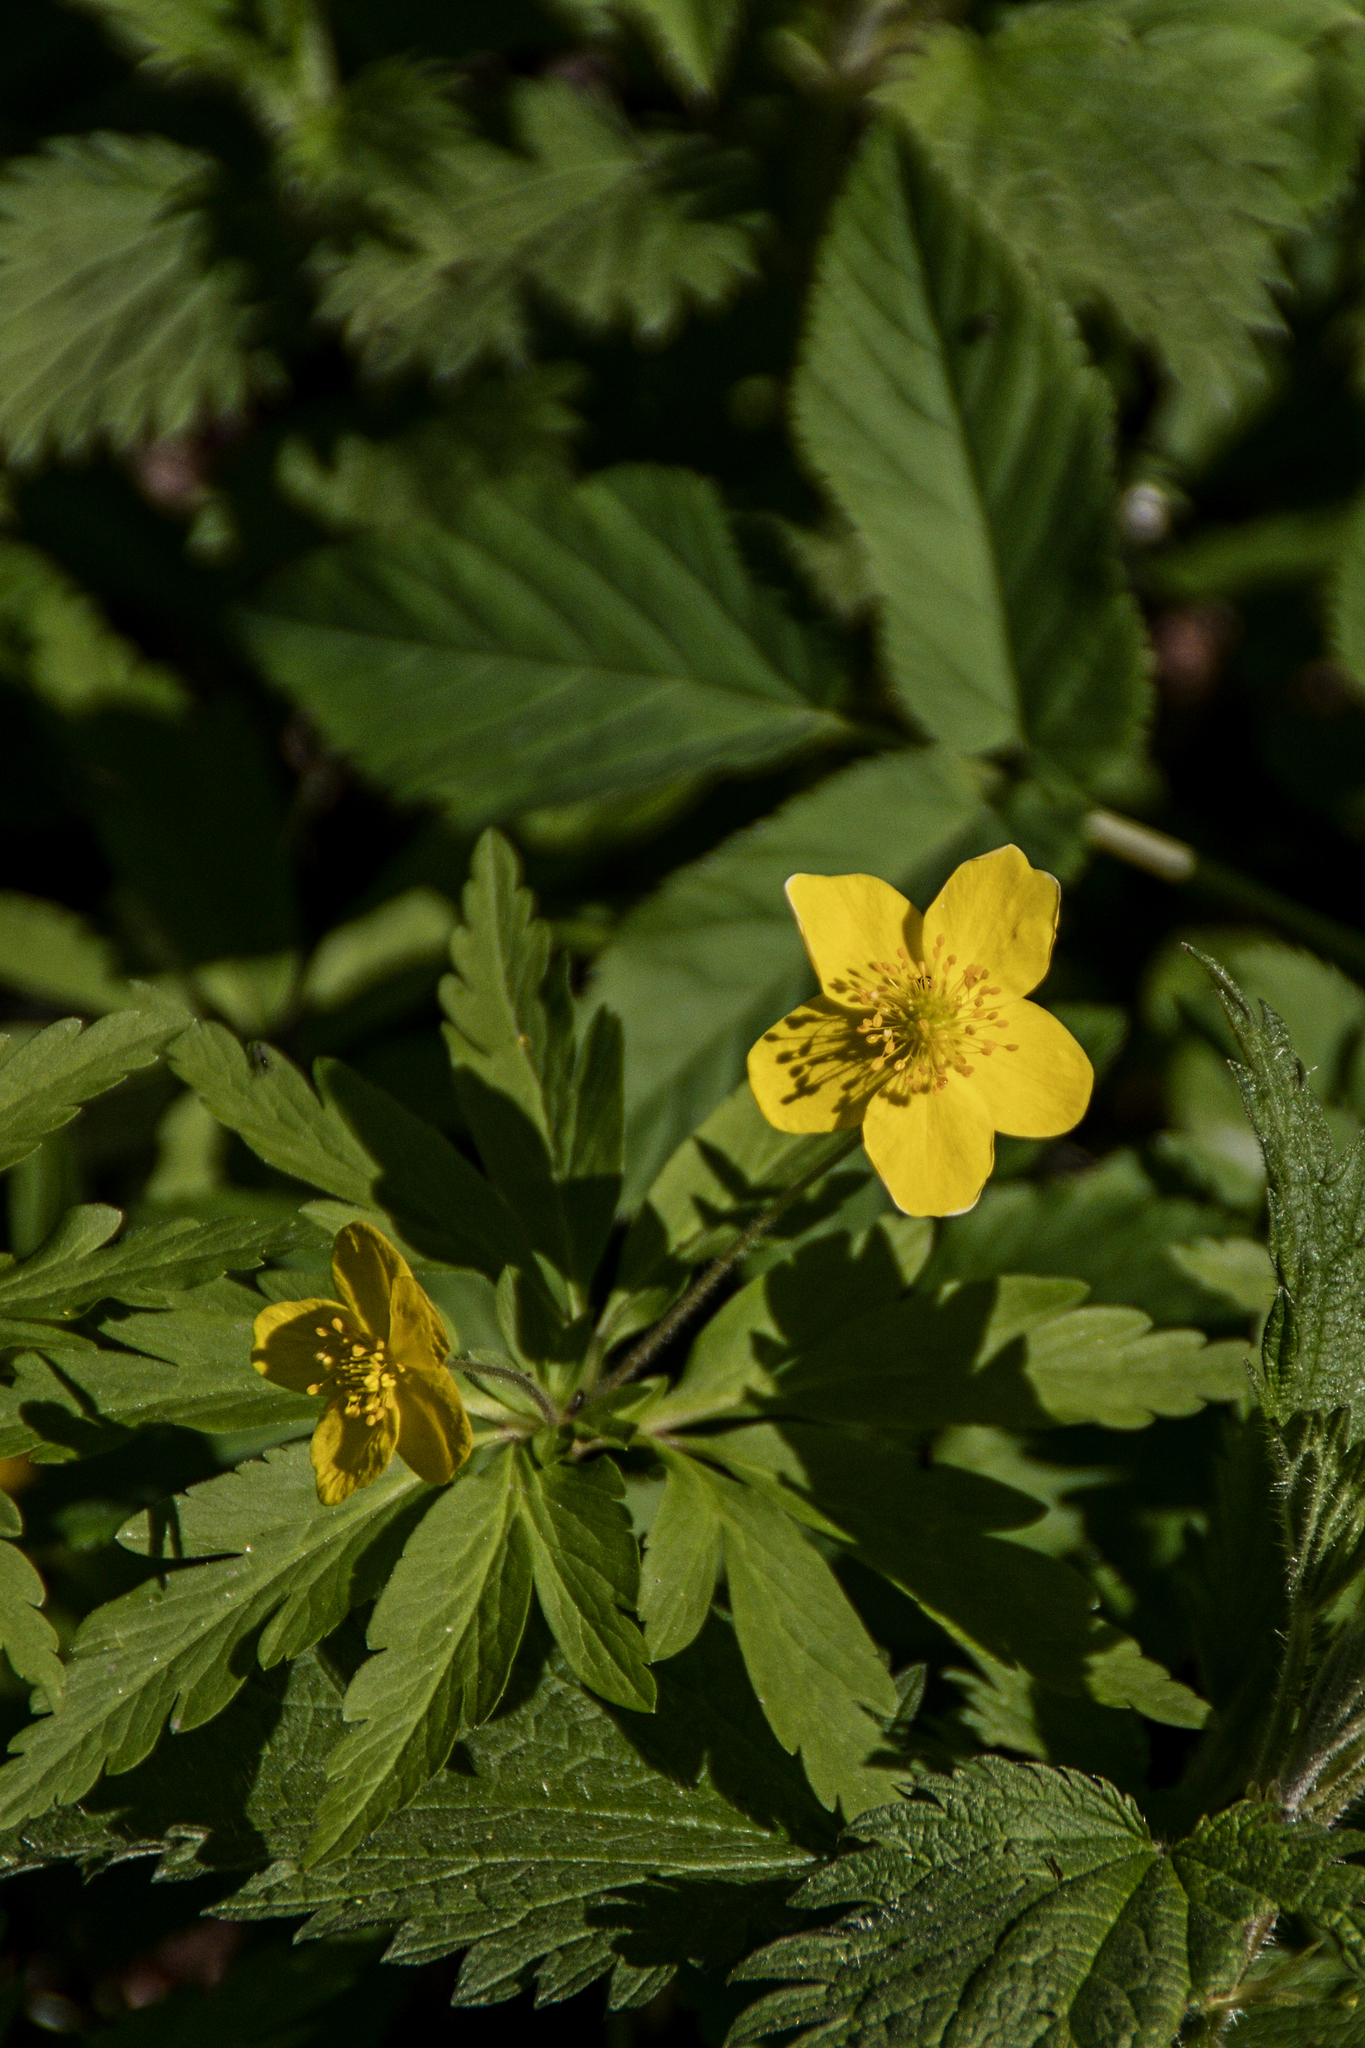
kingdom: Plantae
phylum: Tracheophyta
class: Magnoliopsida
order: Ranunculales
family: Ranunculaceae
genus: Anemone
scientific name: Anemone ranunculoides
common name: Yellow anemone
